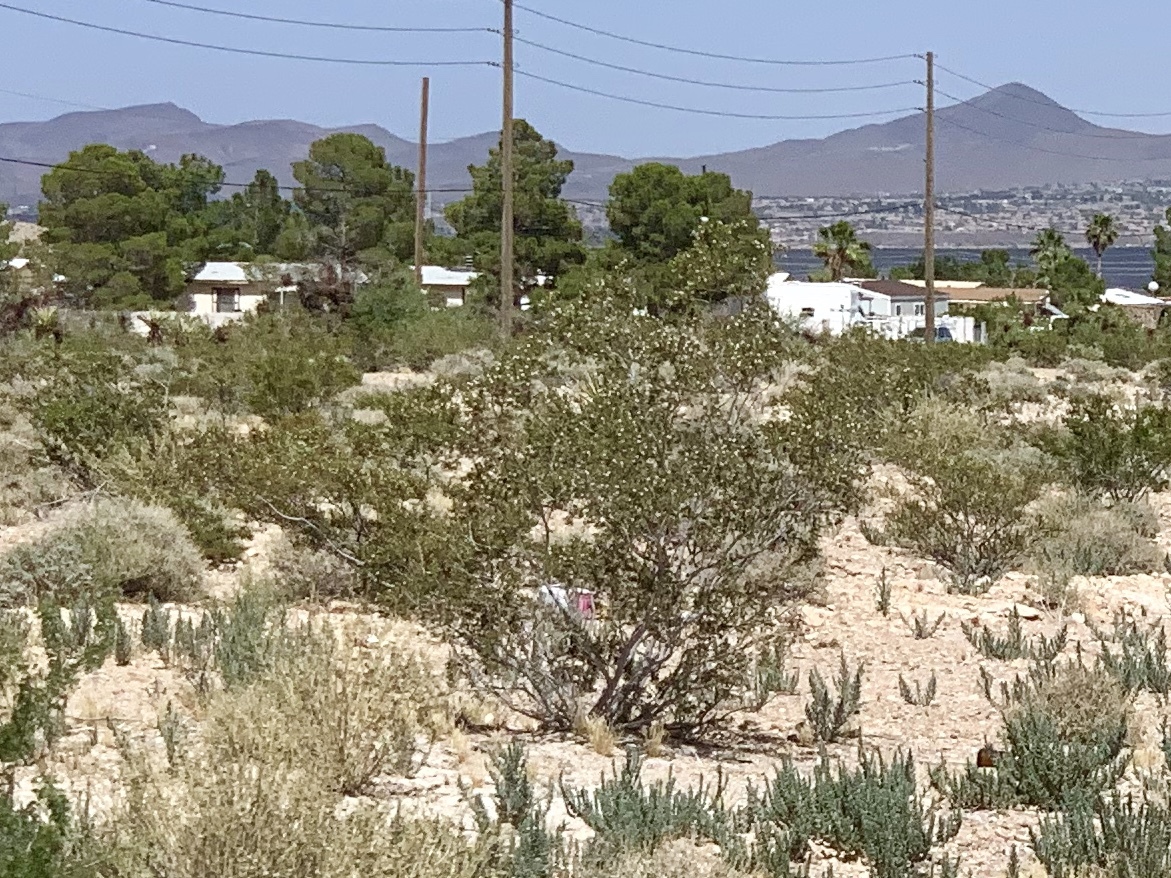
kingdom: Plantae
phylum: Tracheophyta
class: Magnoliopsida
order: Zygophyllales
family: Zygophyllaceae
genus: Larrea
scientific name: Larrea tridentata
